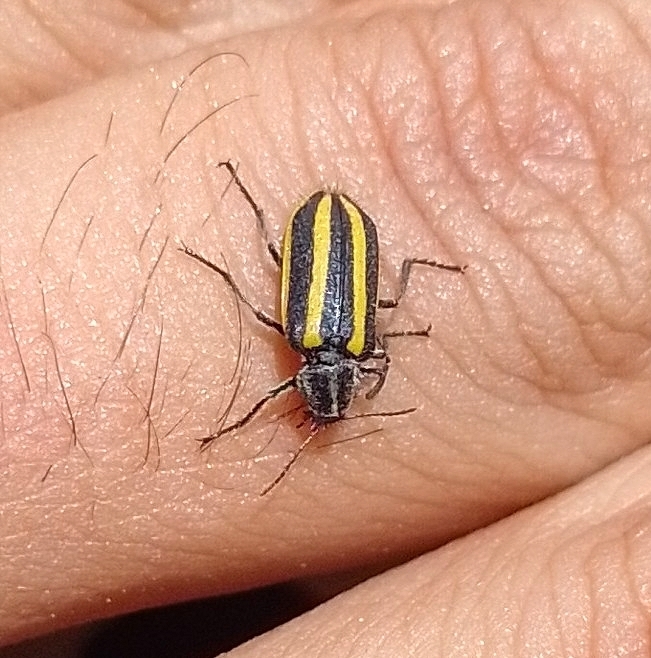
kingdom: Animalia
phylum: Arthropoda
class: Insecta
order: Coleoptera
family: Melyridae
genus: Astylus
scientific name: Astylus vittaticollis
